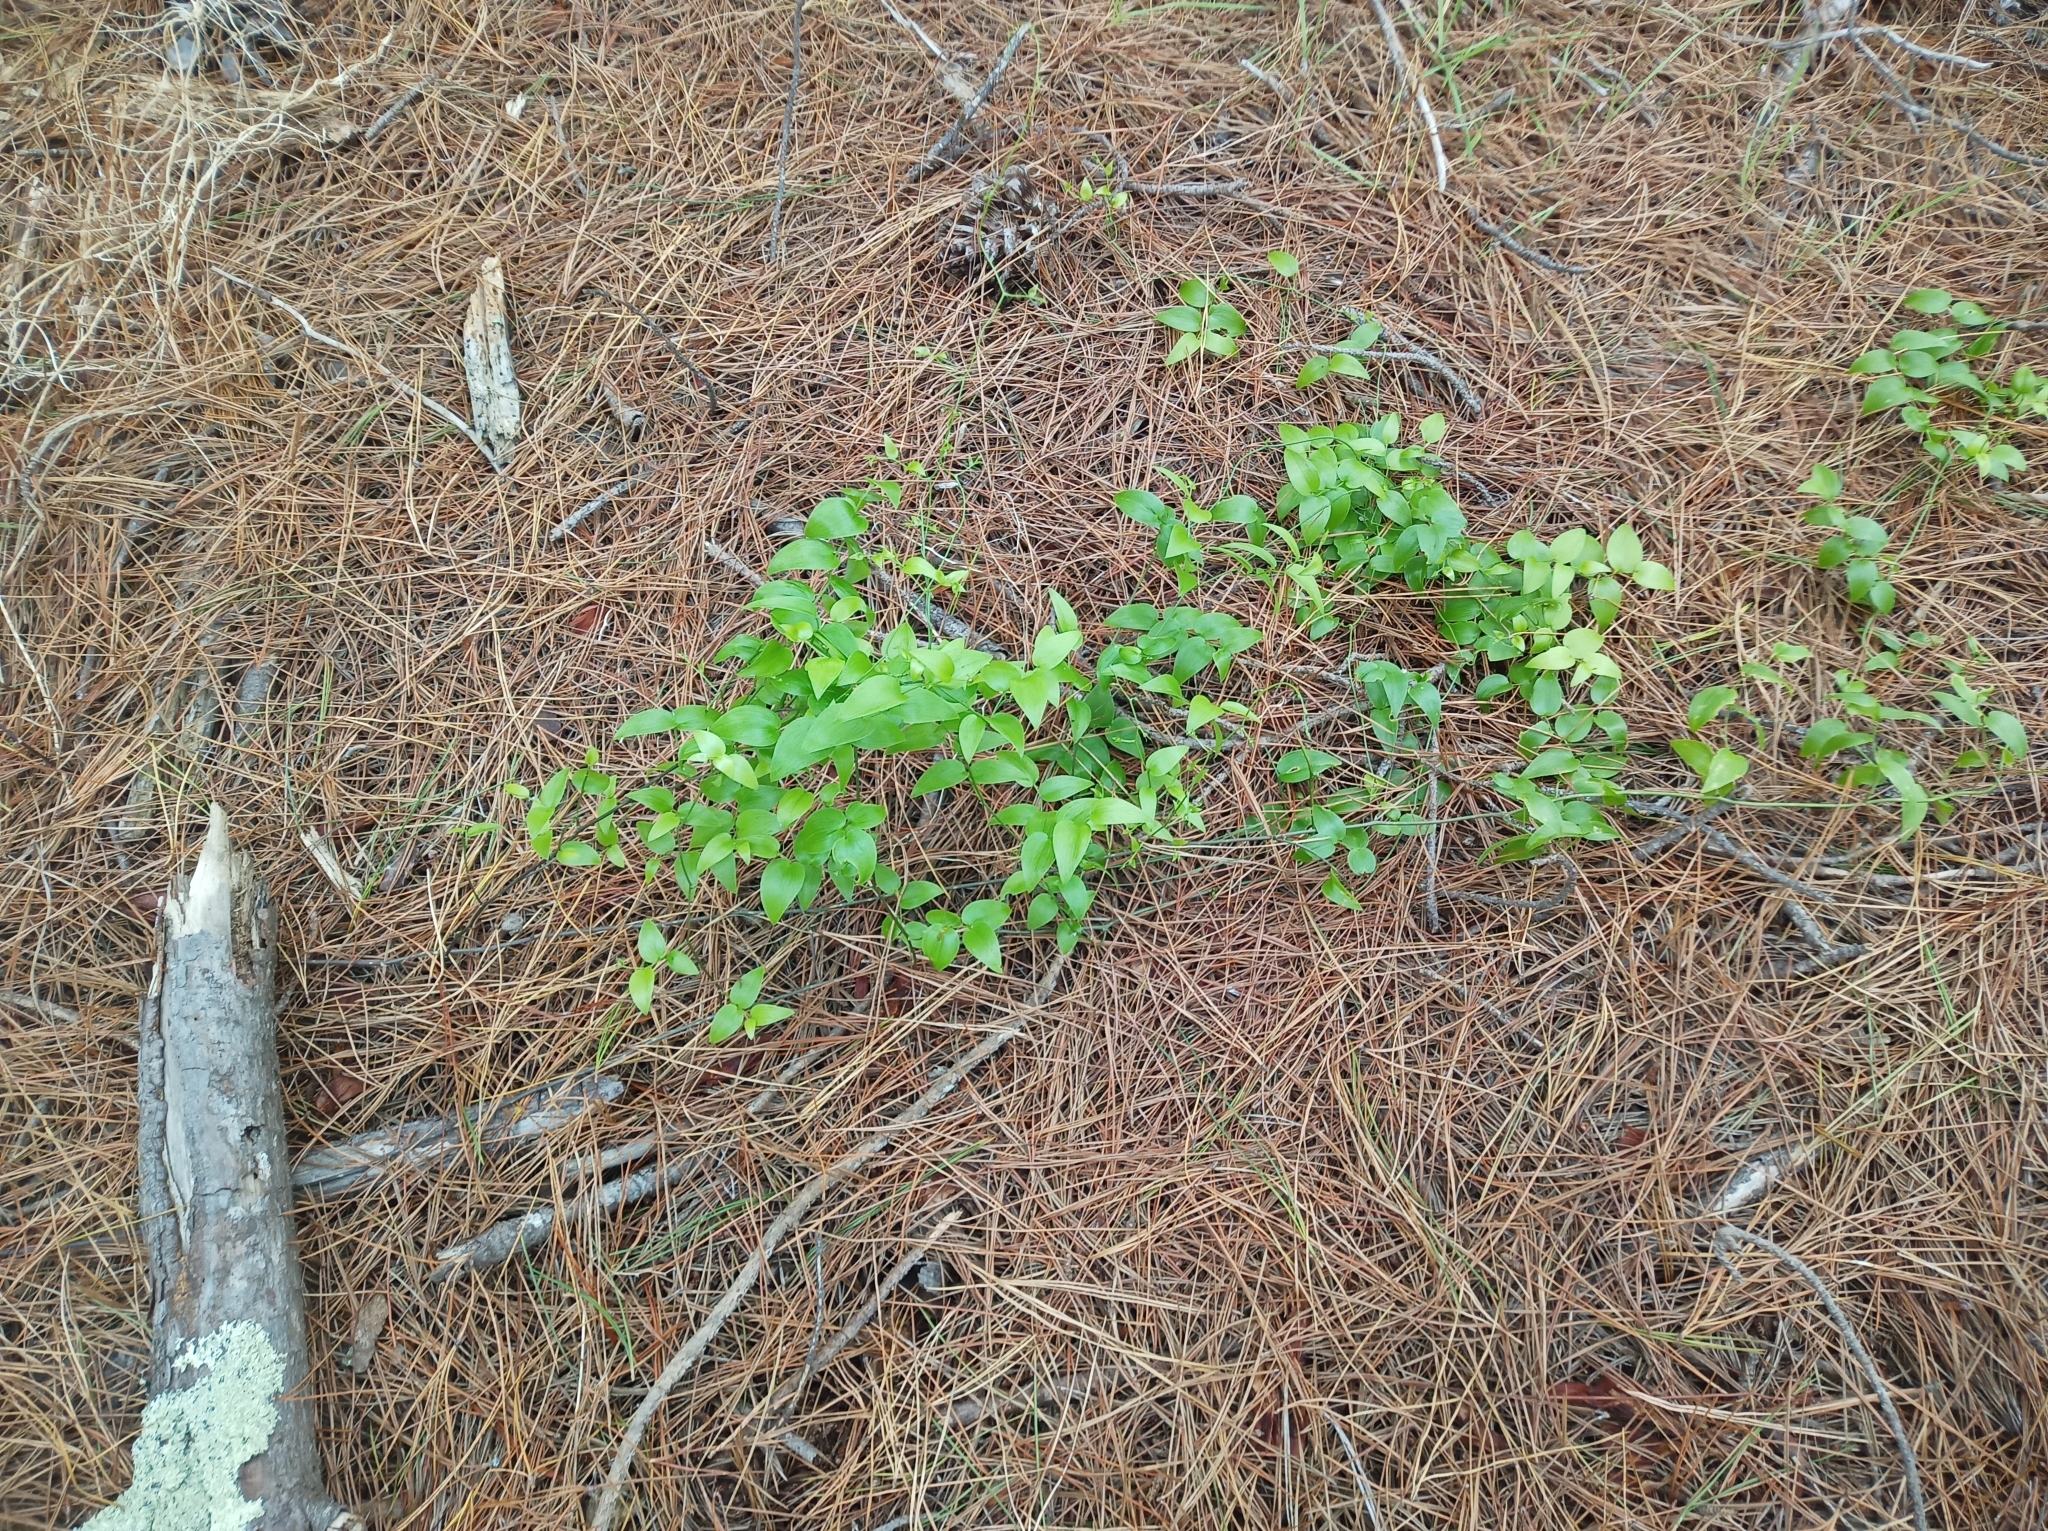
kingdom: Plantae
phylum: Tracheophyta
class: Liliopsida
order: Asparagales
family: Asparagaceae
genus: Asparagus
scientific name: Asparagus asparagoides
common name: African asparagus fern
